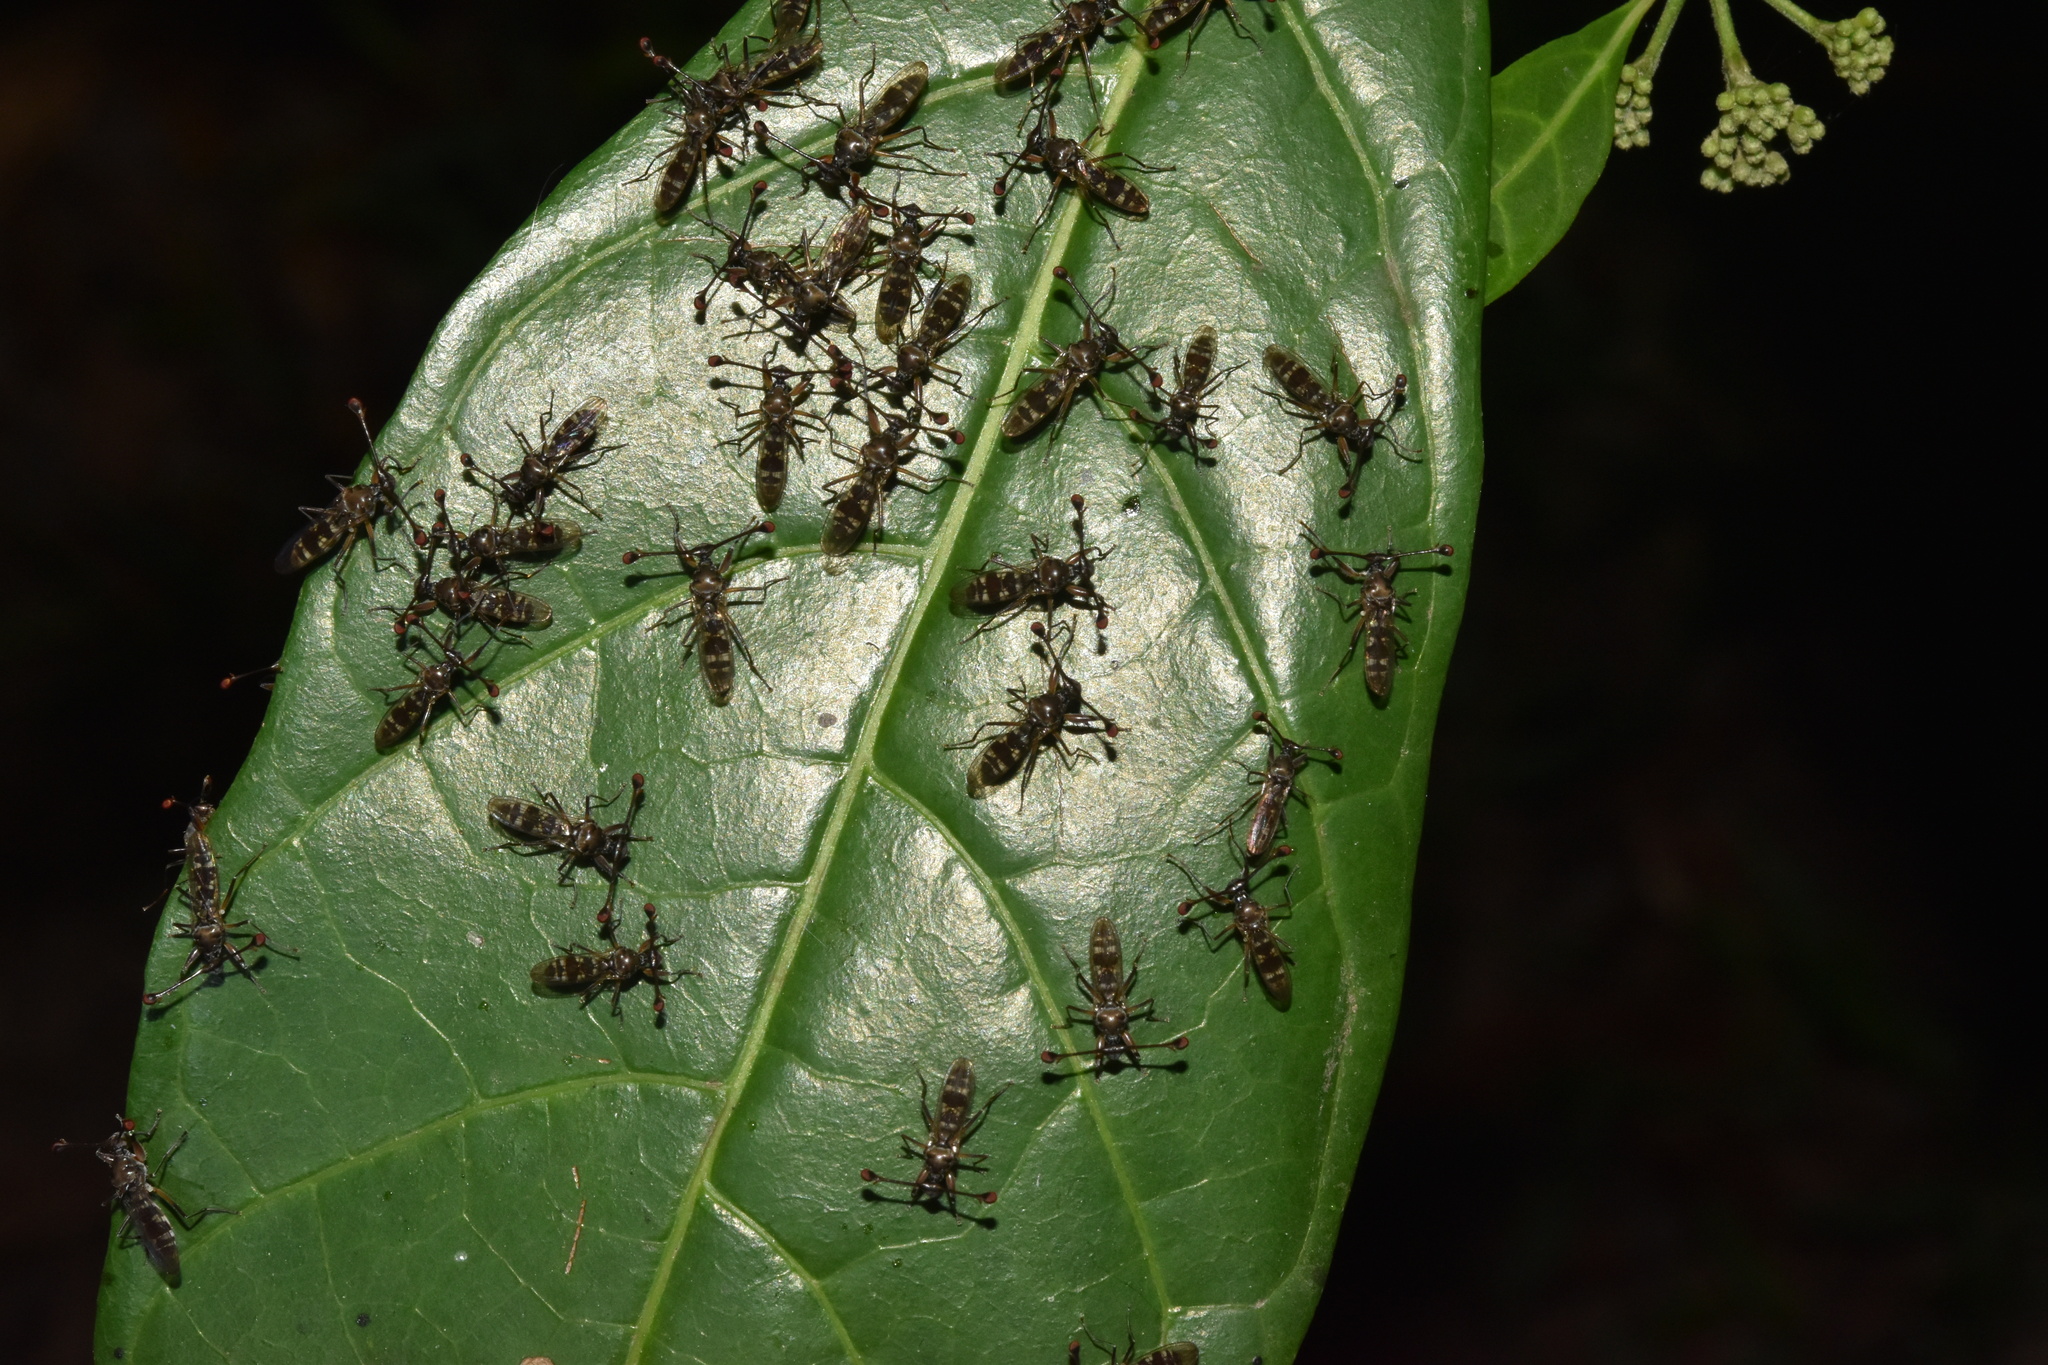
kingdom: Animalia
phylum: Arthropoda
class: Insecta
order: Diptera
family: Diopsidae
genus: Diasemopsis
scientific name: Diasemopsis aethiopica
